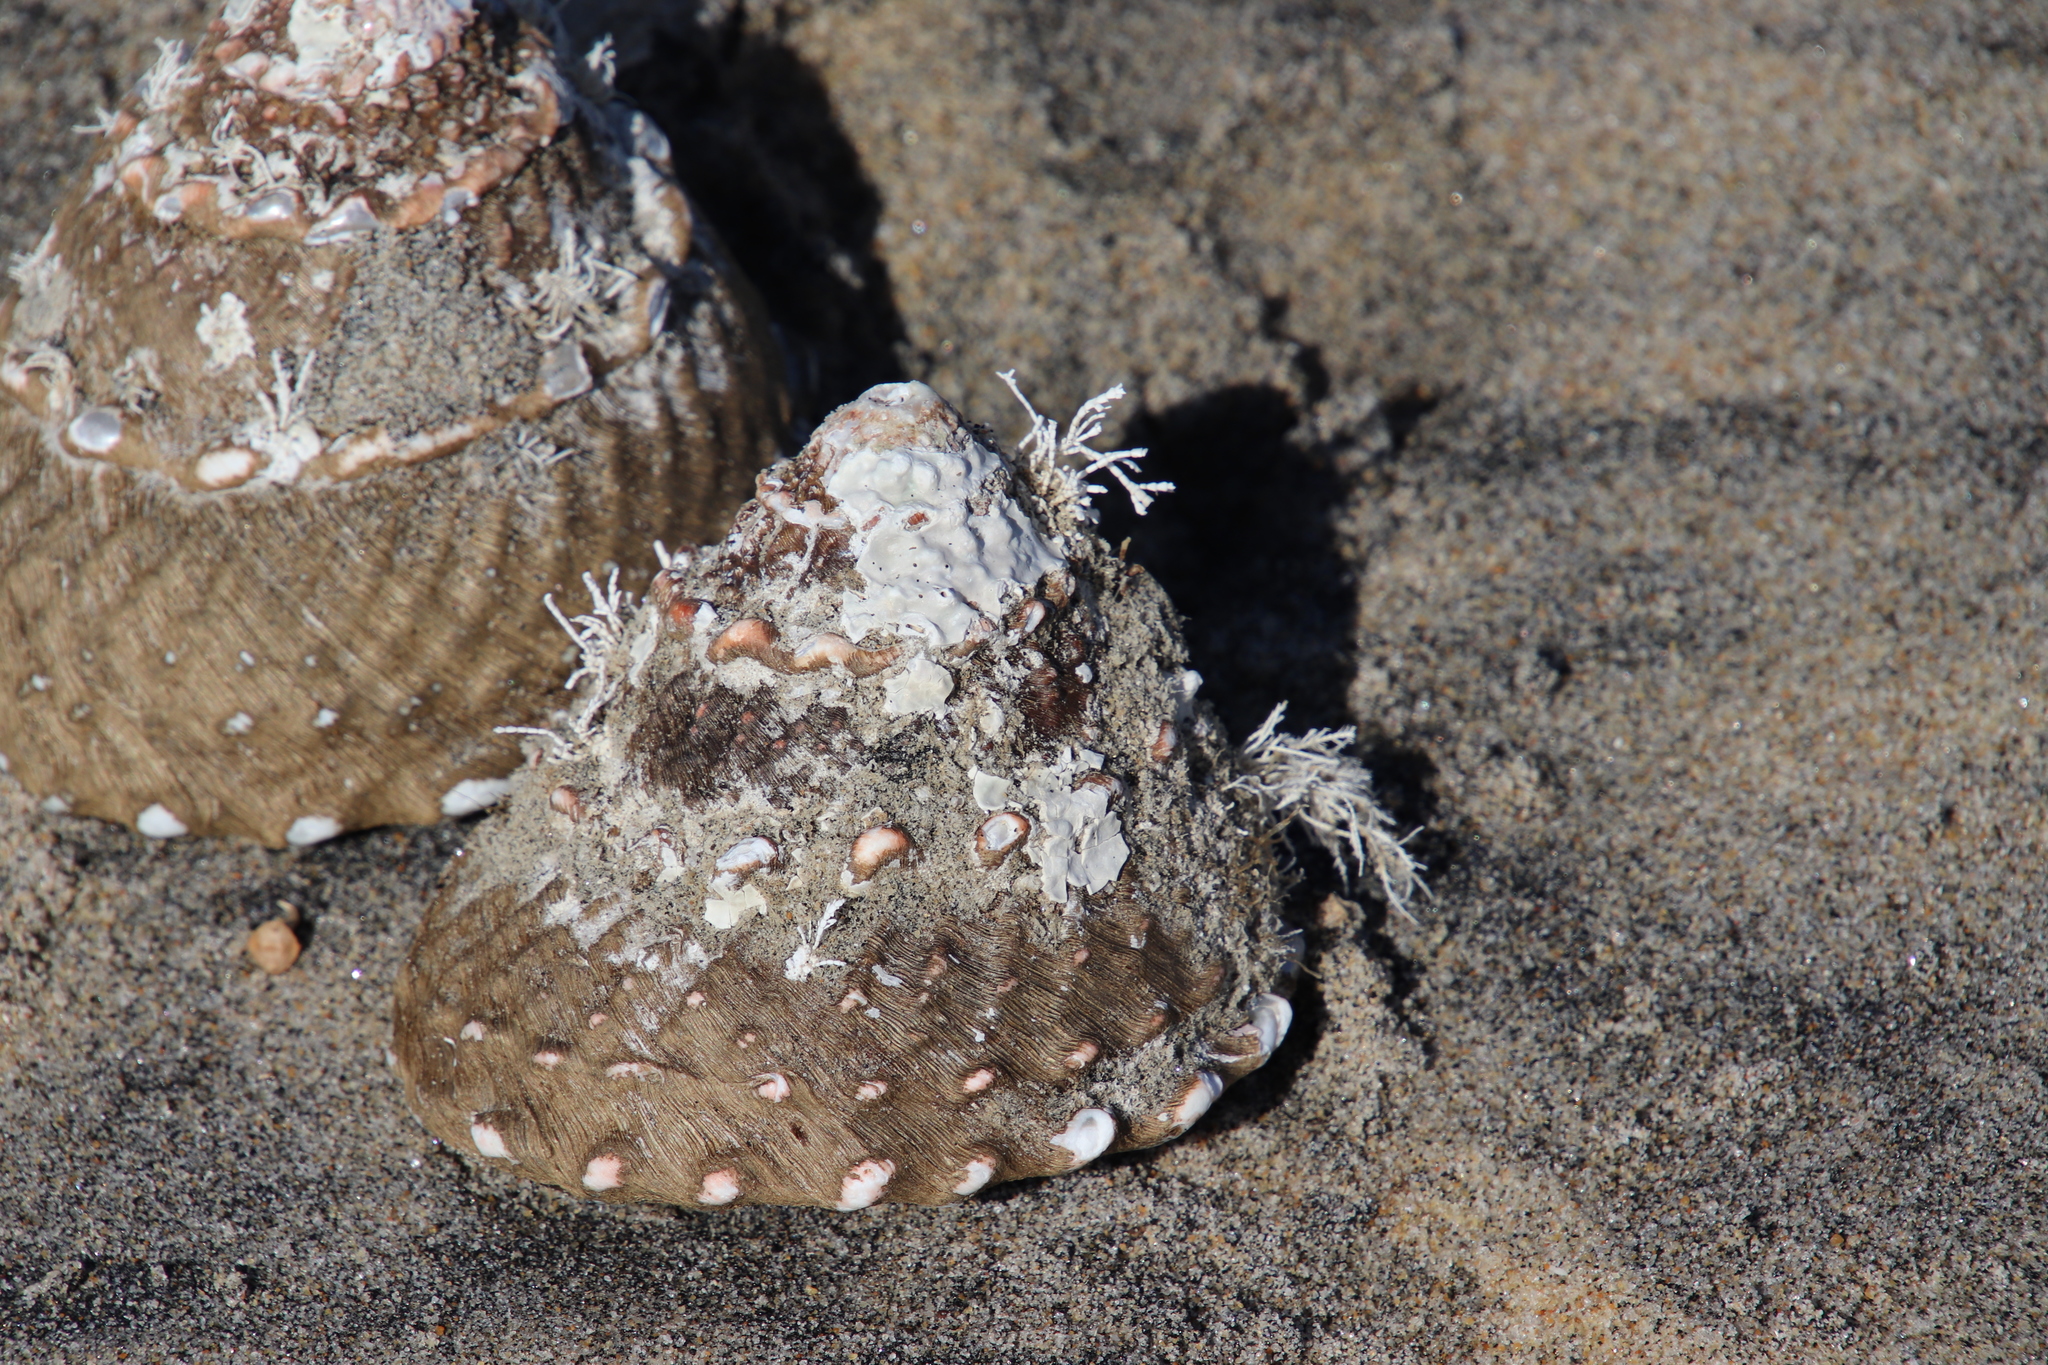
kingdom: Animalia
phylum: Mollusca
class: Gastropoda
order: Trochida
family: Turbinidae
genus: Megastraea
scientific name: Megastraea undosa
